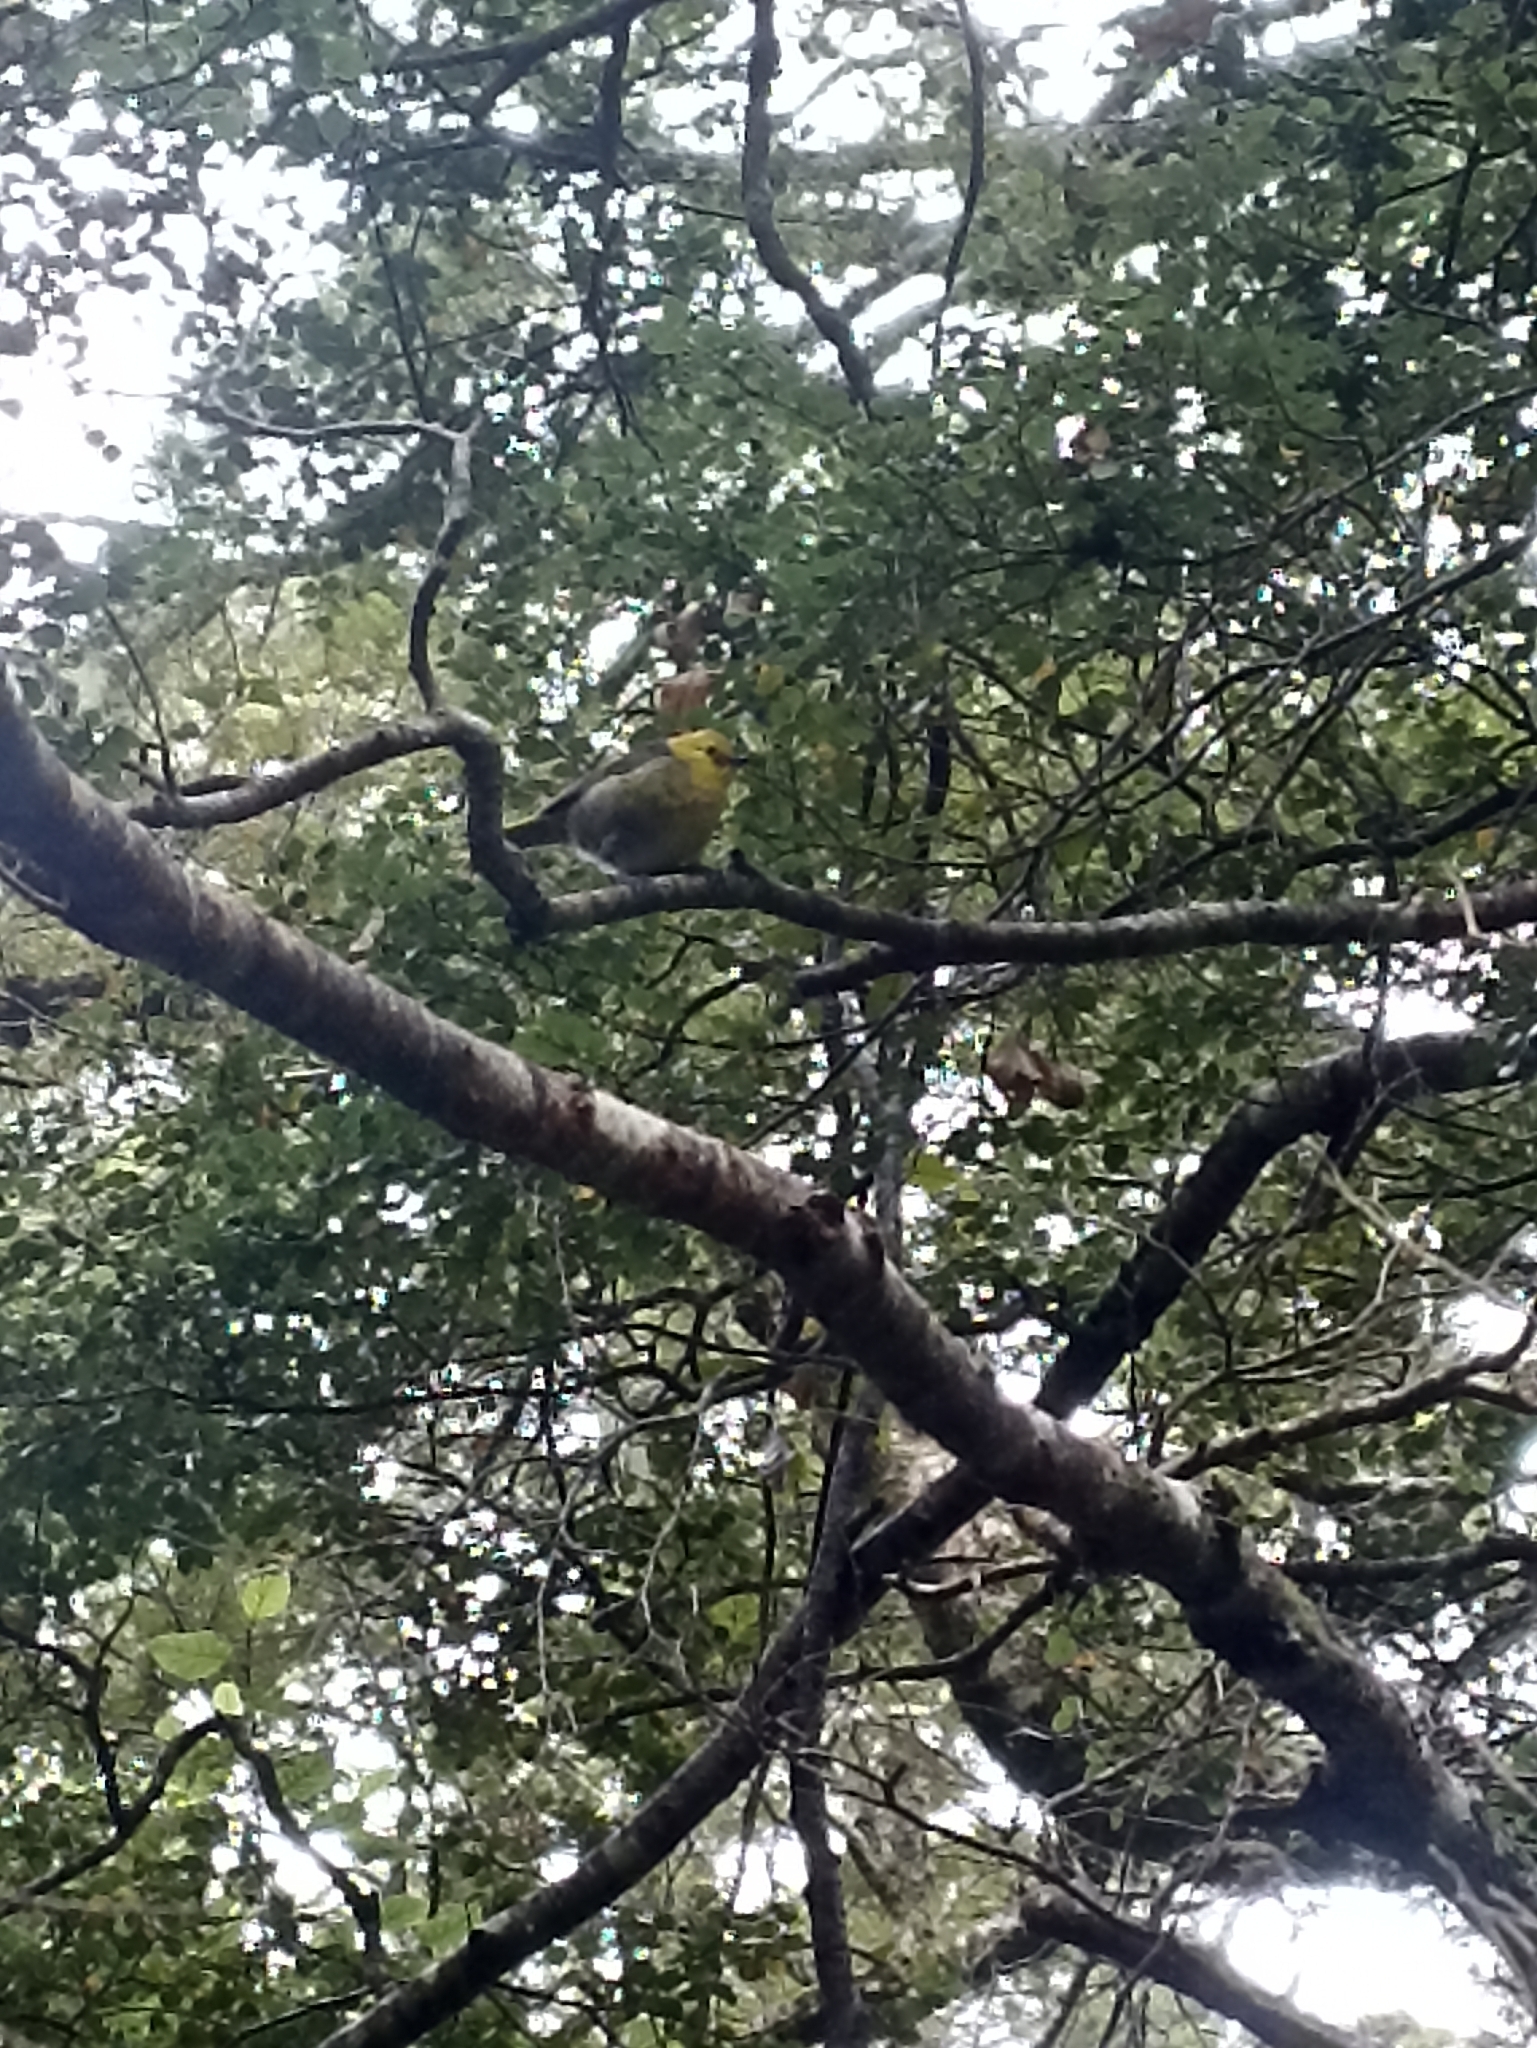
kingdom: Animalia
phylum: Chordata
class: Aves
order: Passeriformes
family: Acanthizidae
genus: Mohoua
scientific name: Mohoua ochrocephala
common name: Yellowhead
